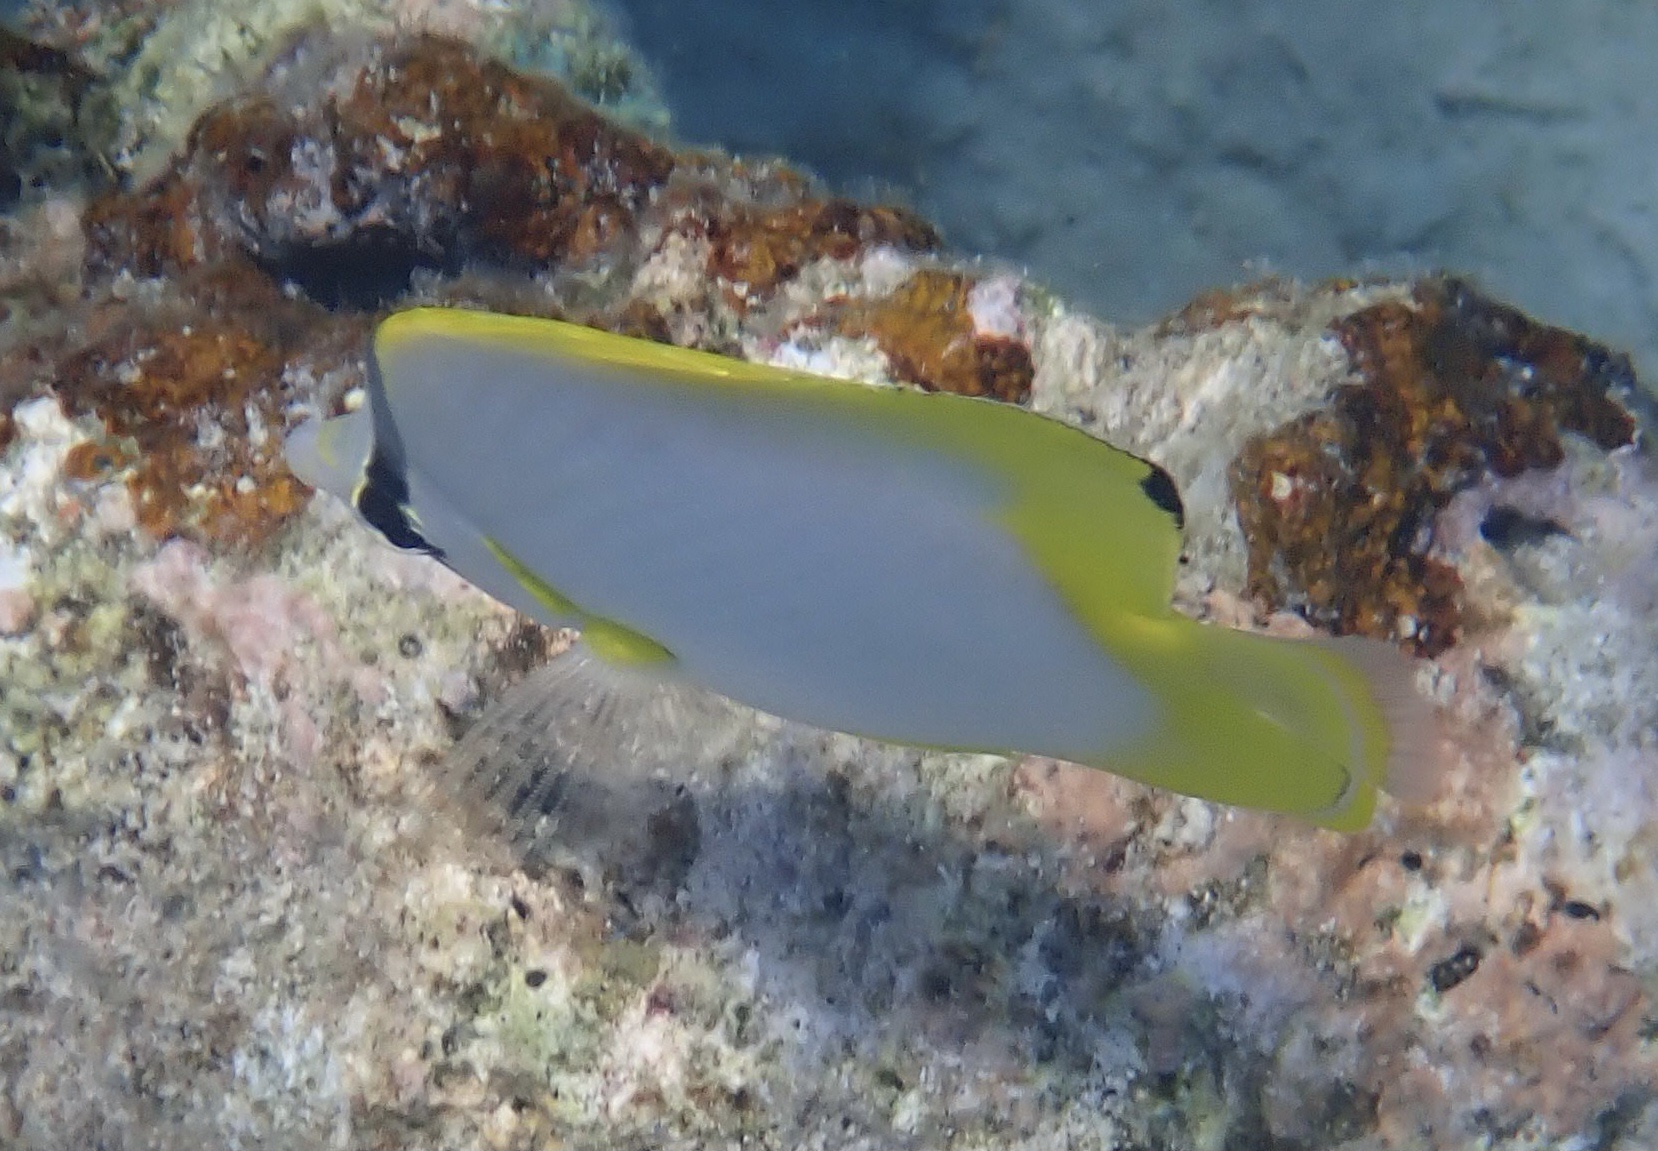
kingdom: Animalia
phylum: Chordata
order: Perciformes
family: Chaetodontidae
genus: Chaetodon
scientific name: Chaetodon ocellatus
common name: Spotfin butterflyfish
